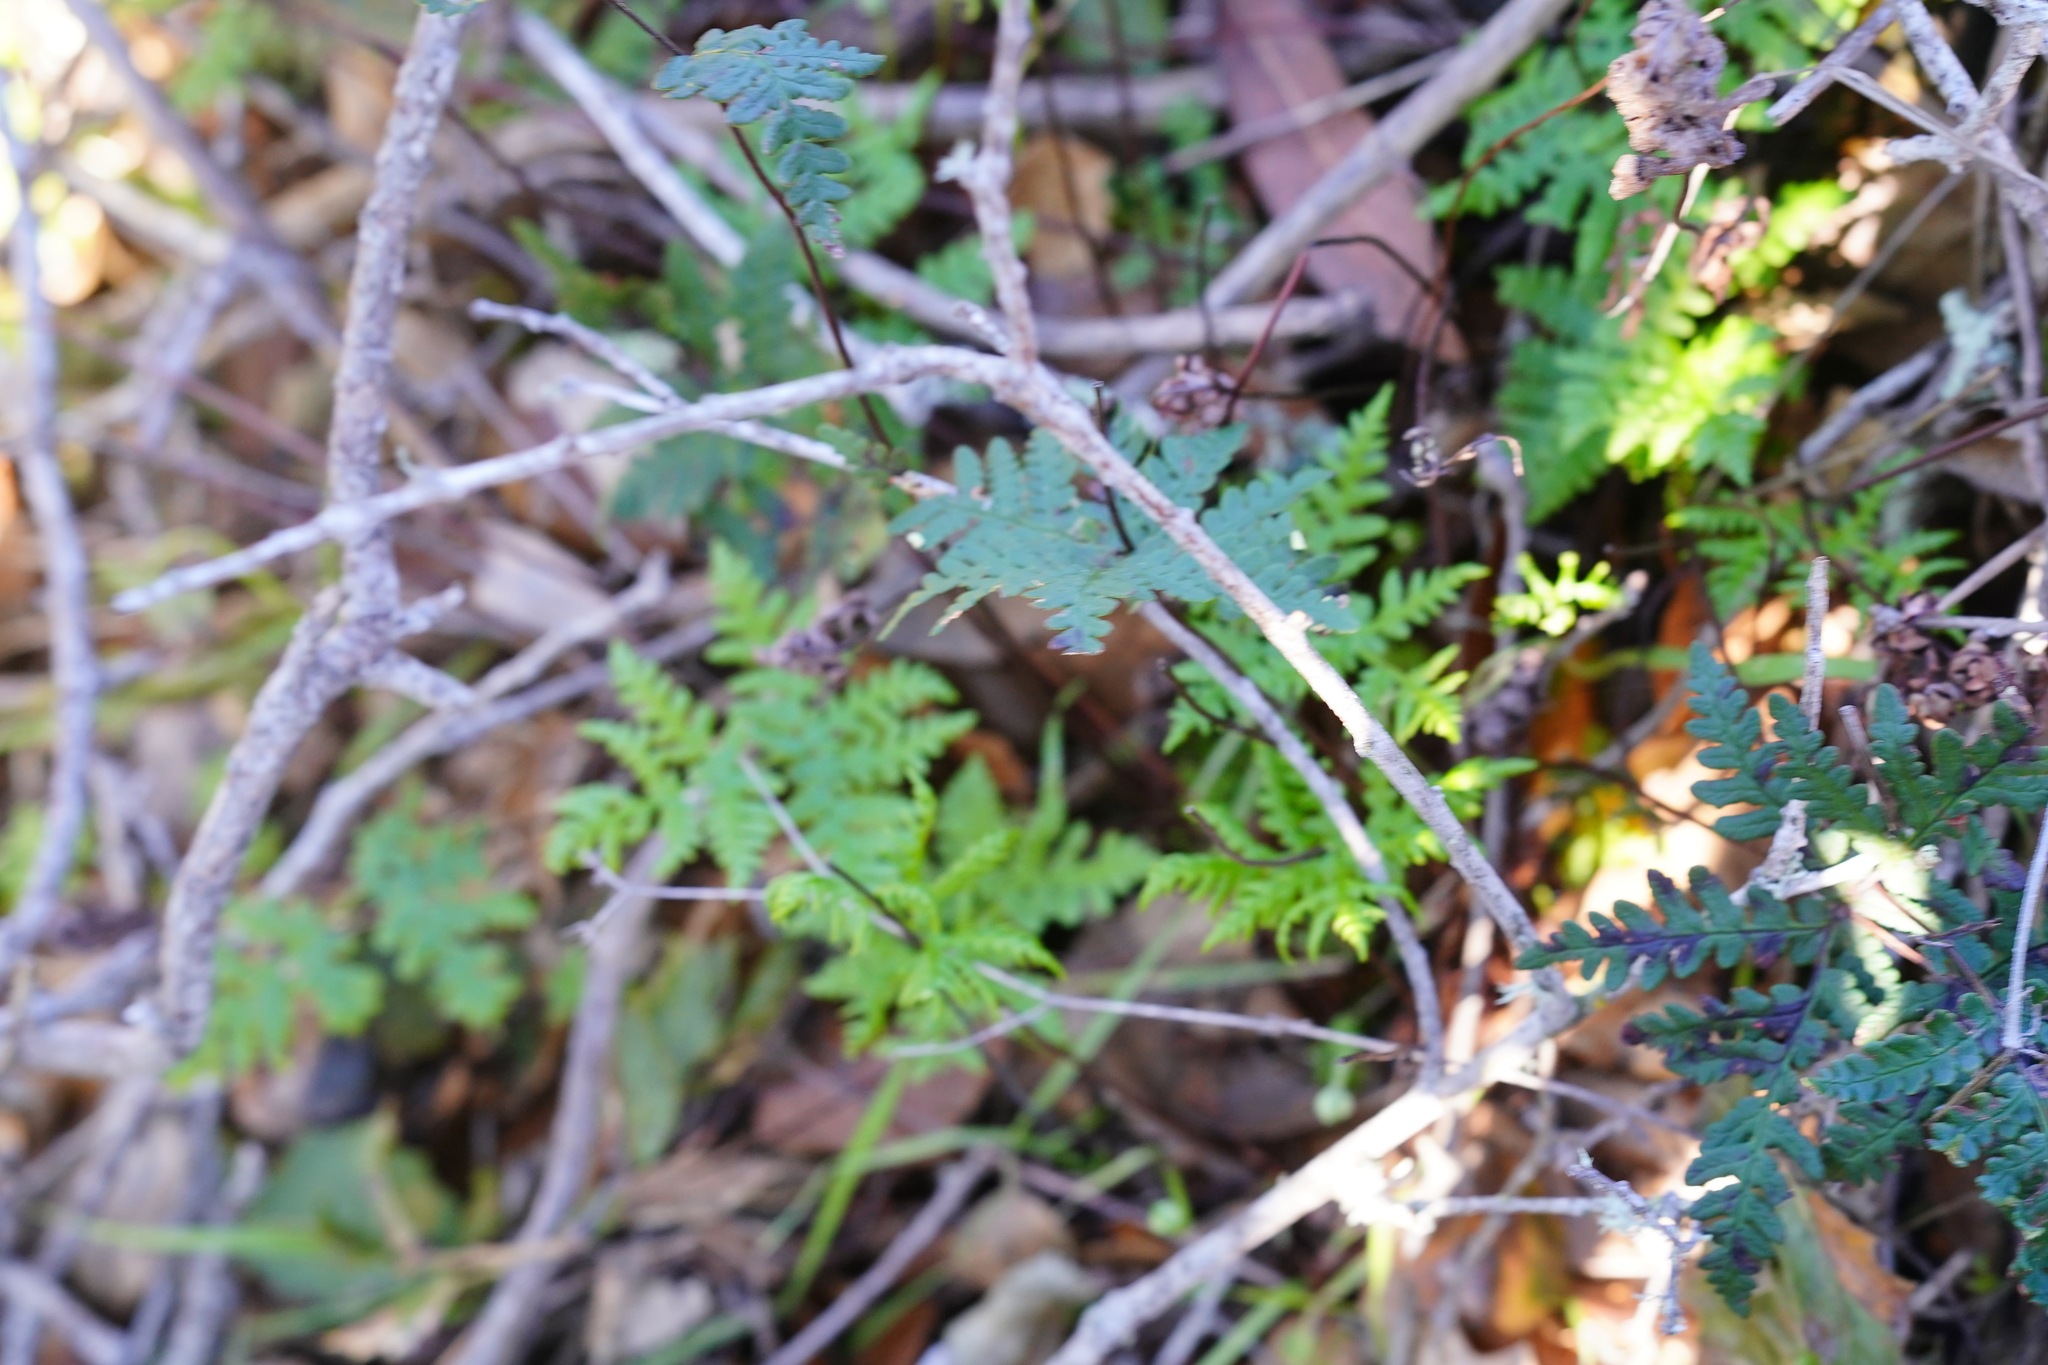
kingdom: Plantae
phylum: Tracheophyta
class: Polypodiopsida
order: Polypodiales
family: Pteridaceae
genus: Pentagramma
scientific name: Pentagramma triangularis
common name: Gold fern
